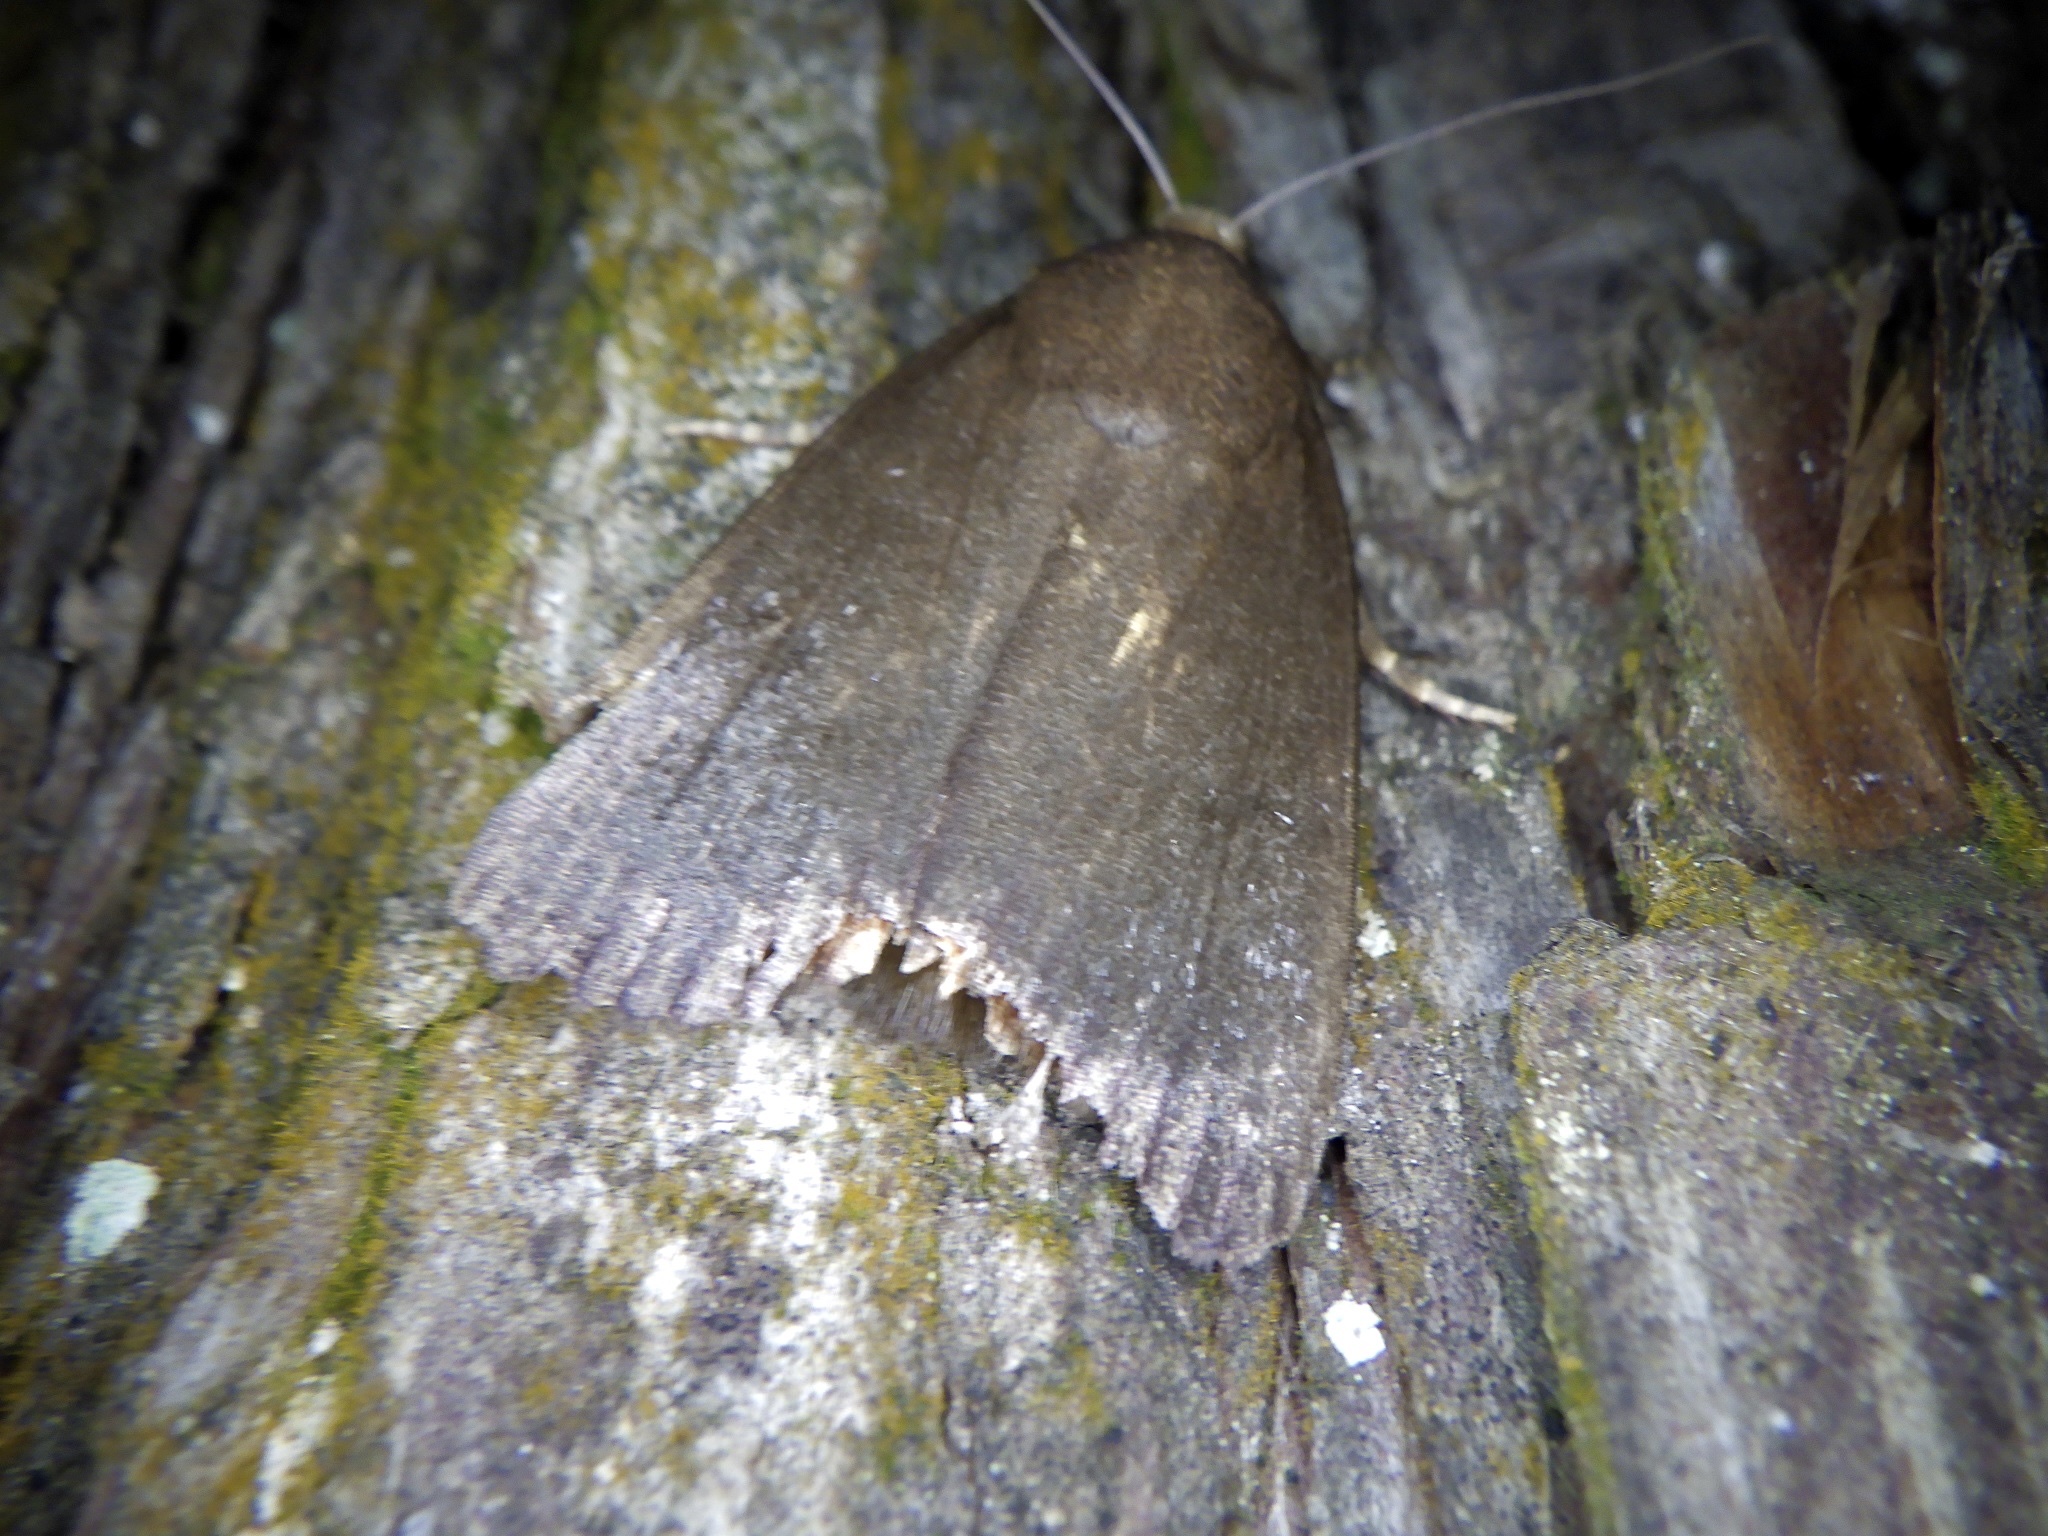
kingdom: Animalia
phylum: Arthropoda
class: Insecta
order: Lepidoptera
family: Noctuidae
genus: Amphipyra
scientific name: Amphipyra livida
